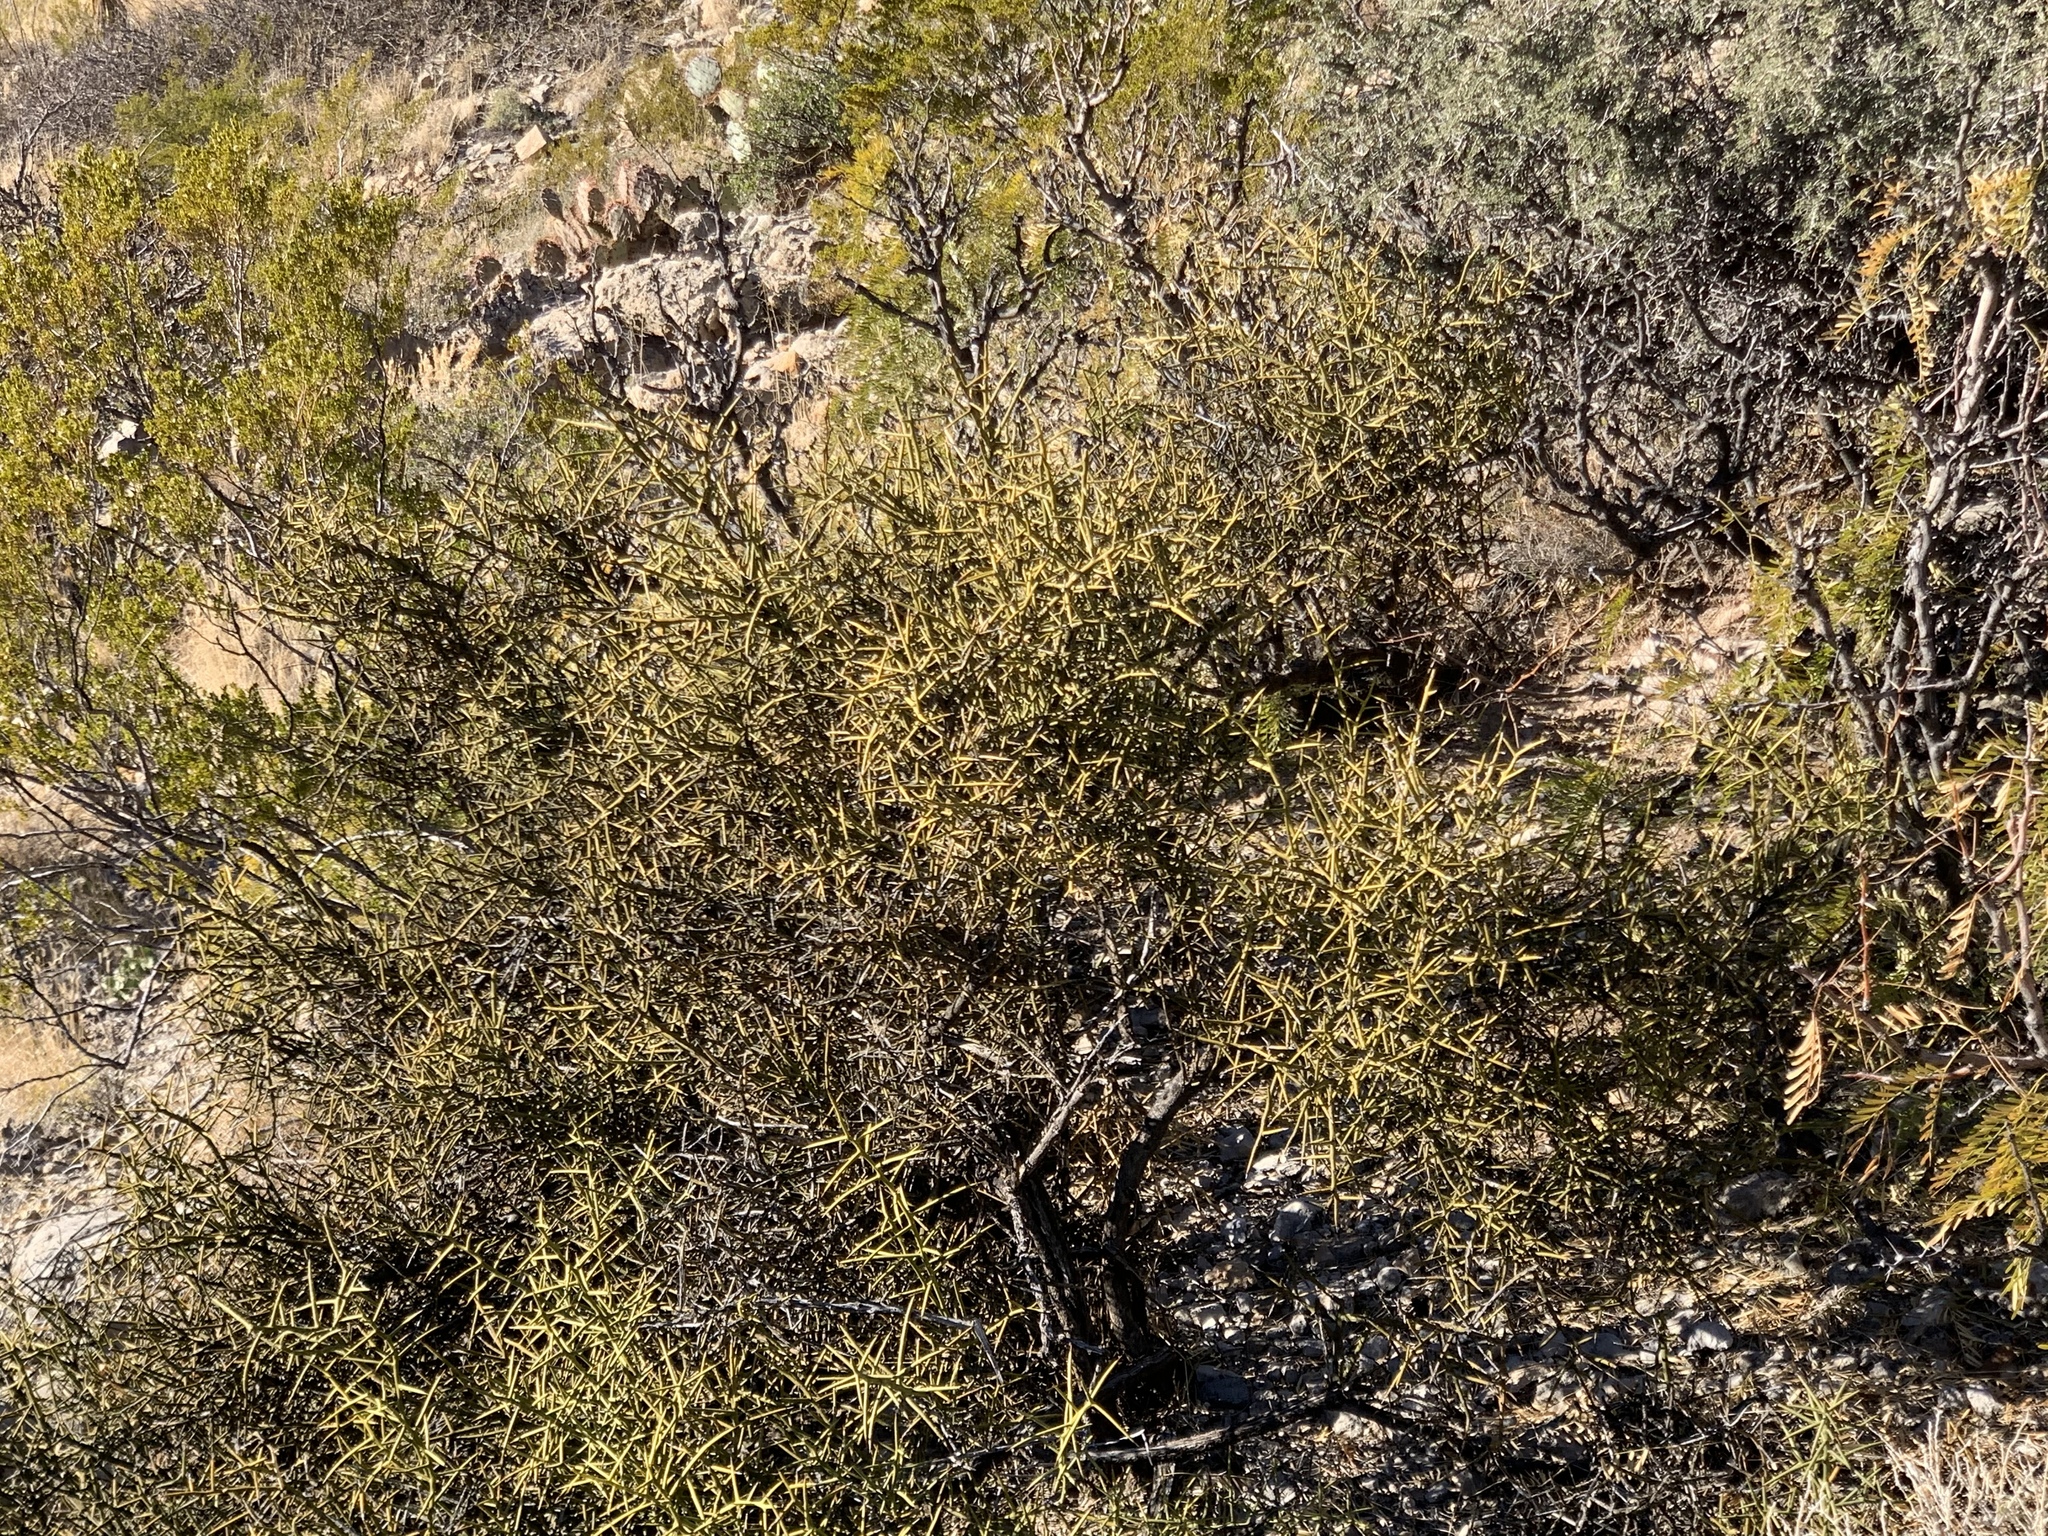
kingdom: Plantae
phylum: Tracheophyta
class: Magnoliopsida
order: Brassicales
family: Koeberliniaceae
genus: Koeberlinia
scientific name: Koeberlinia spinosa
